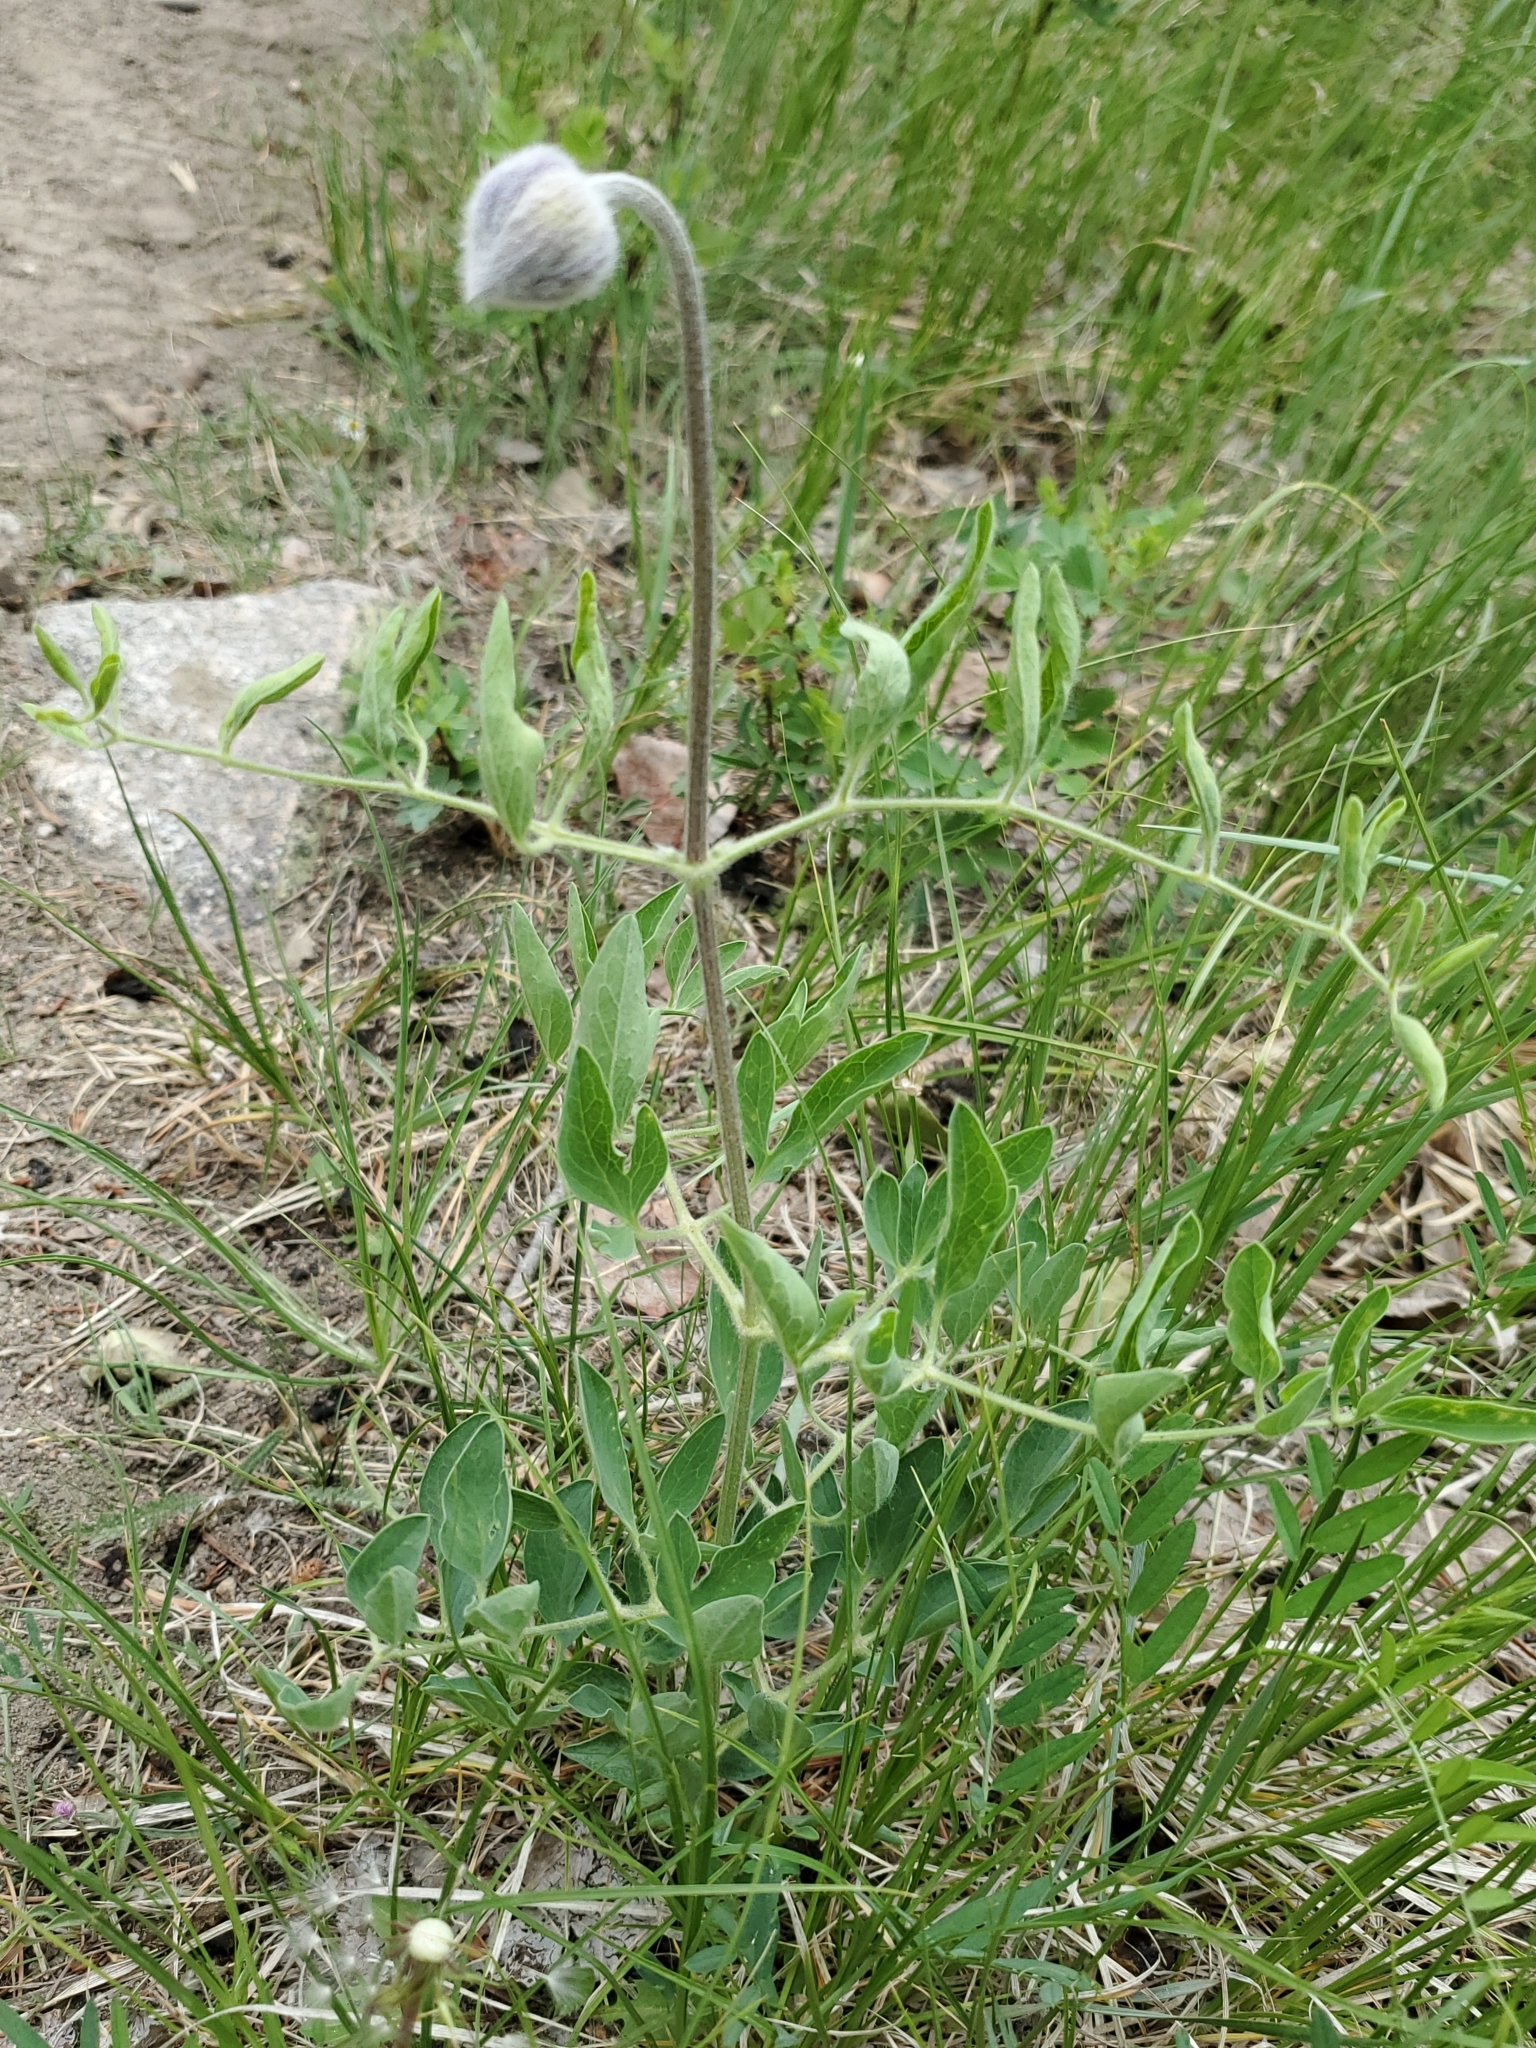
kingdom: Plantae
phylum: Tracheophyta
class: Magnoliopsida
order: Ranunculales
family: Ranunculaceae
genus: Clematis
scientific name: Clematis hirsutissima
